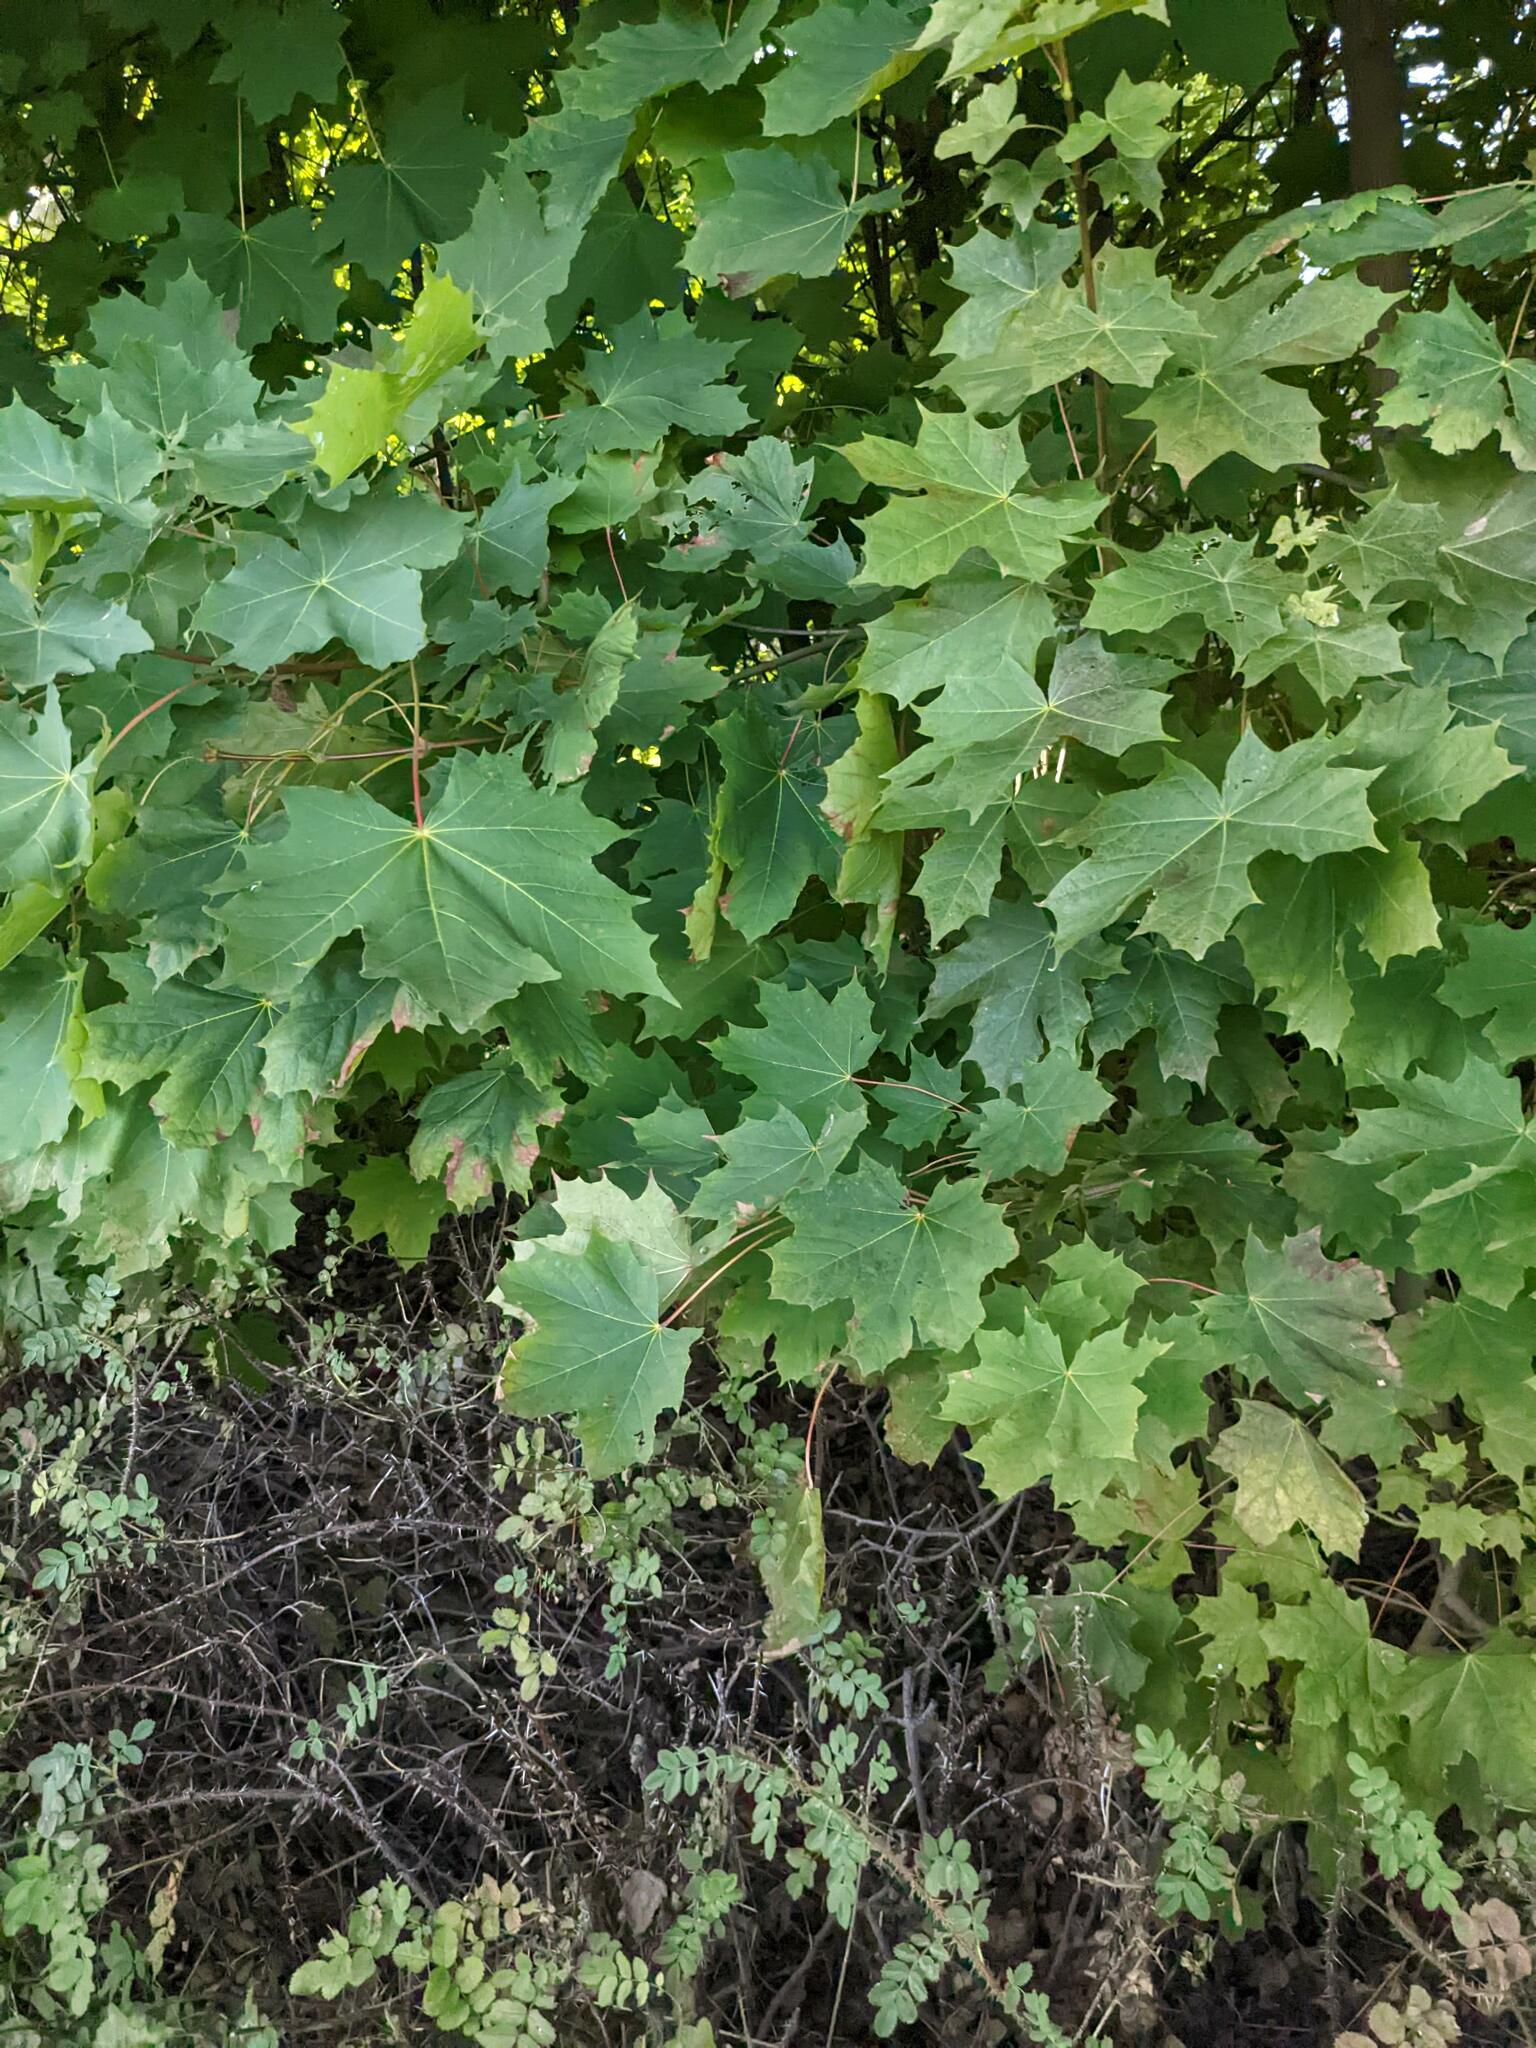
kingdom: Plantae
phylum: Tracheophyta
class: Magnoliopsida
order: Sapindales
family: Sapindaceae
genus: Acer
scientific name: Acer platanoides
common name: Norway maple
